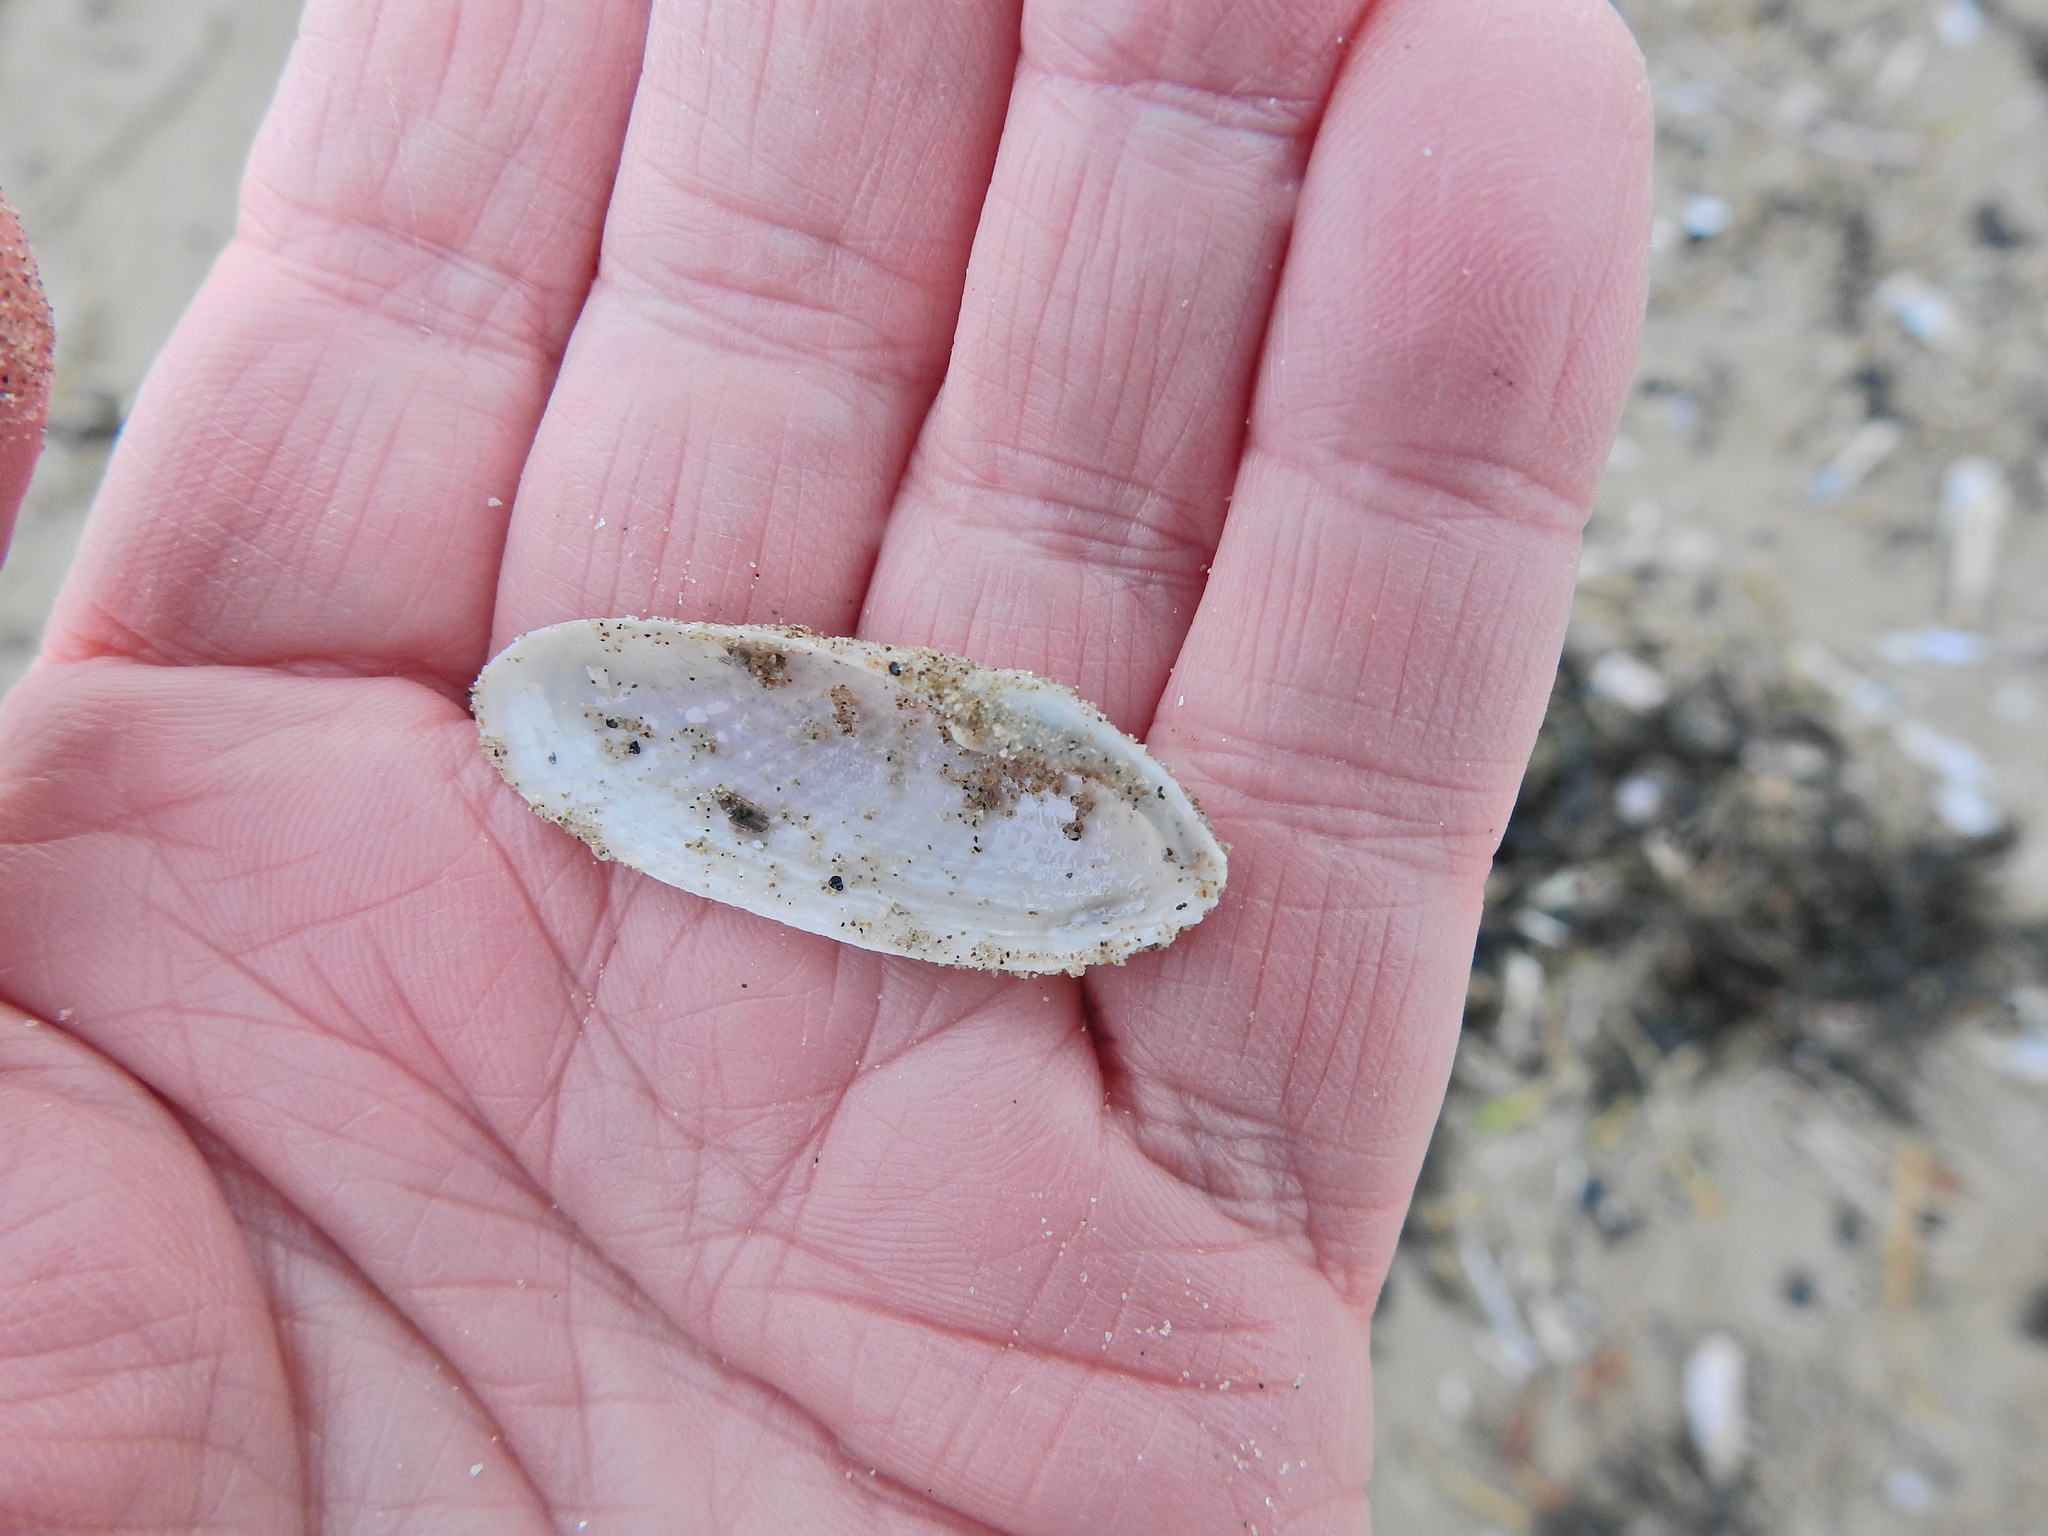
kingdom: Animalia
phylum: Mollusca
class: Bivalvia
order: Myida
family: Pholadidae
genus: Barnea
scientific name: Barnea candida
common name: White piddock
